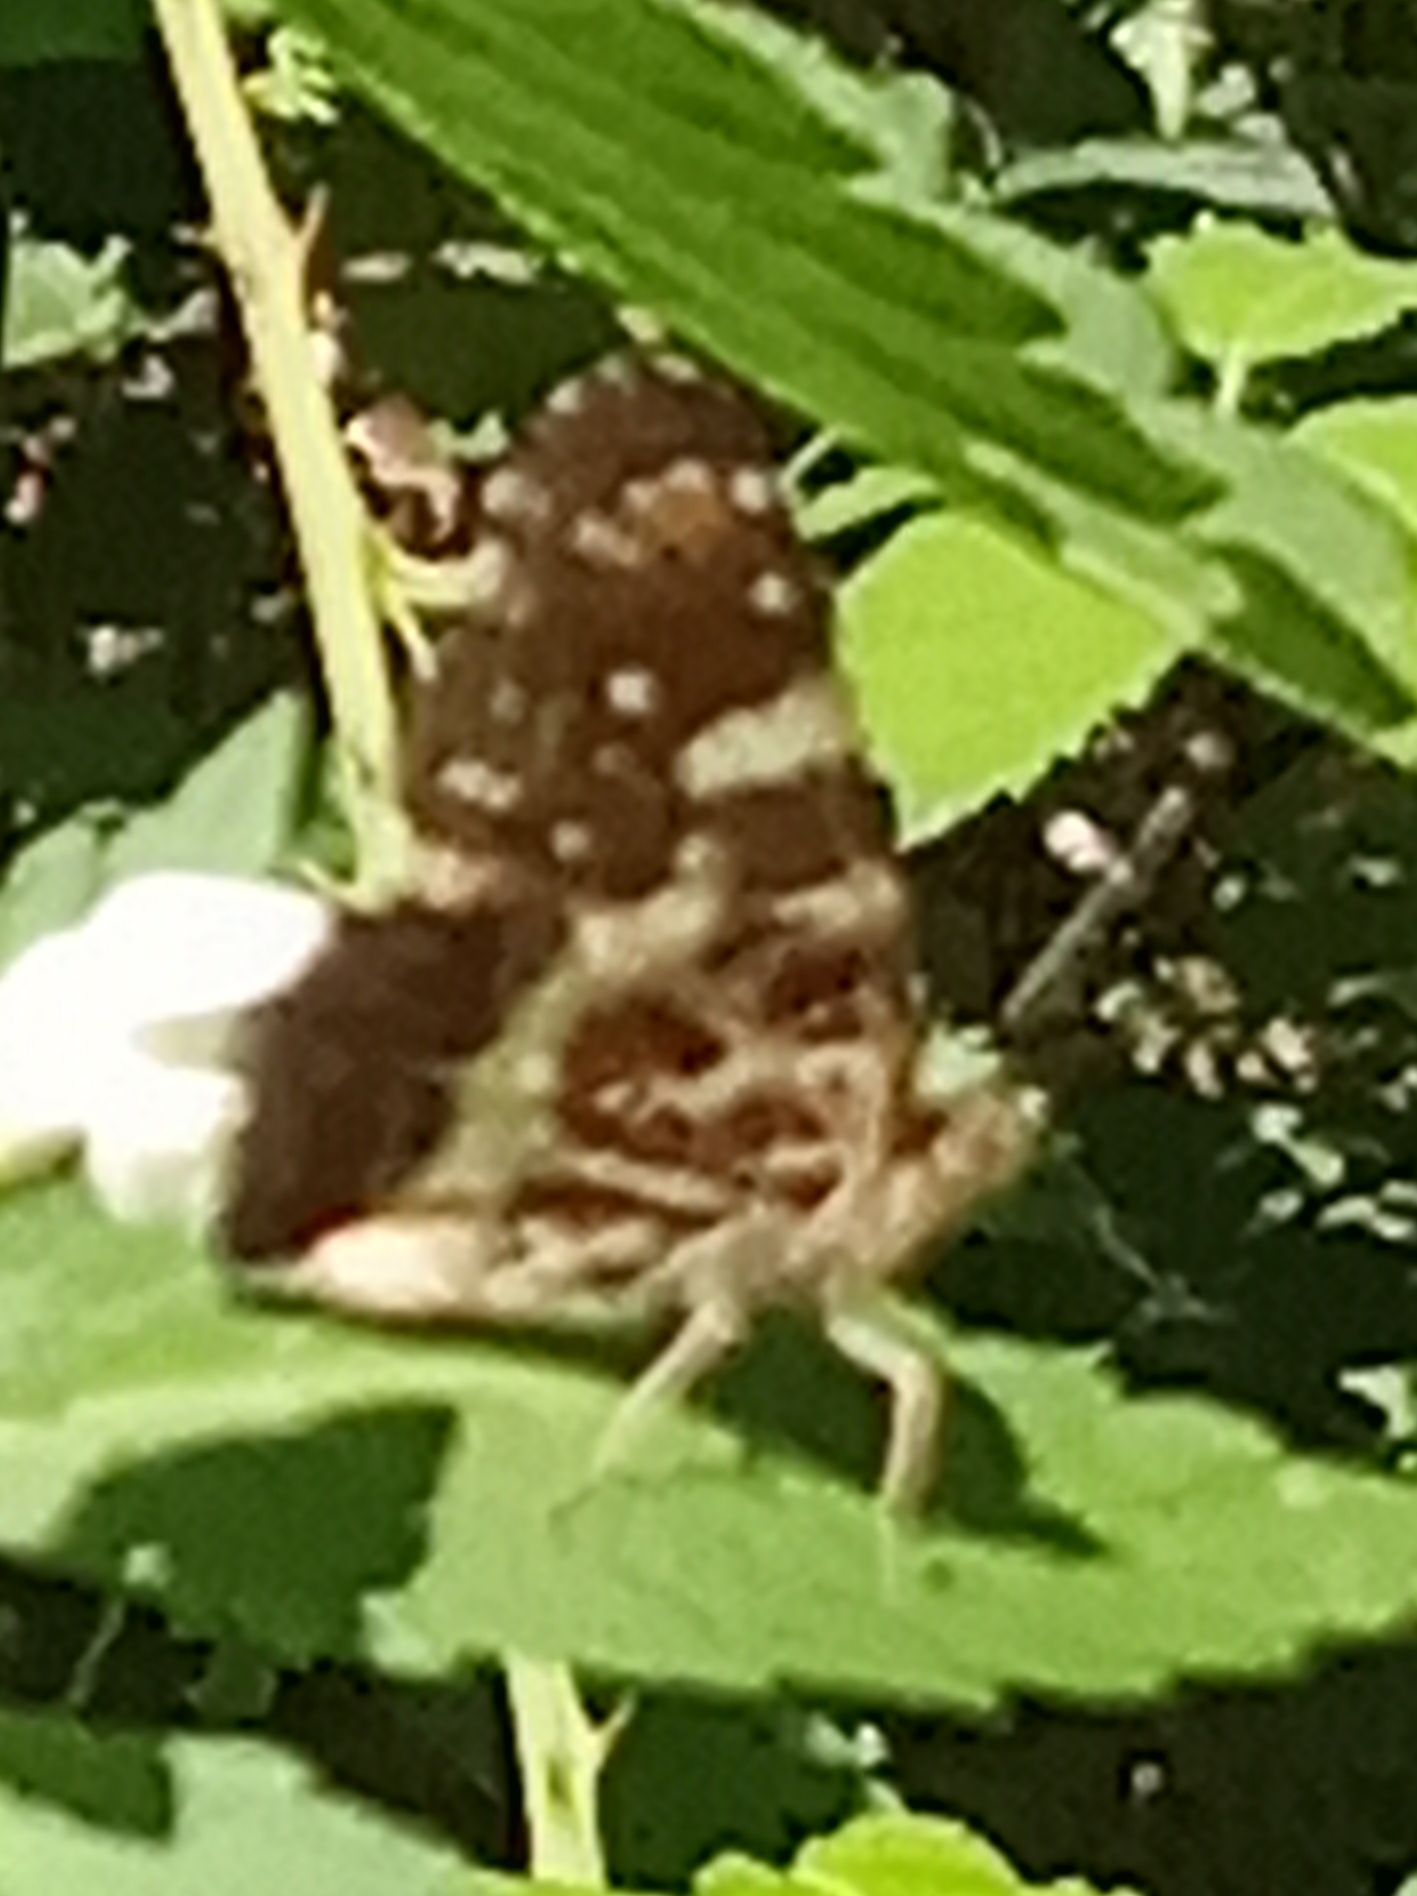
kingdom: Animalia
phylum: Arthropoda
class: Insecta
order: Lepidoptera
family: Nymphalidae
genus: Araschnia
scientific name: Araschnia levana
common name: Map butterfly
